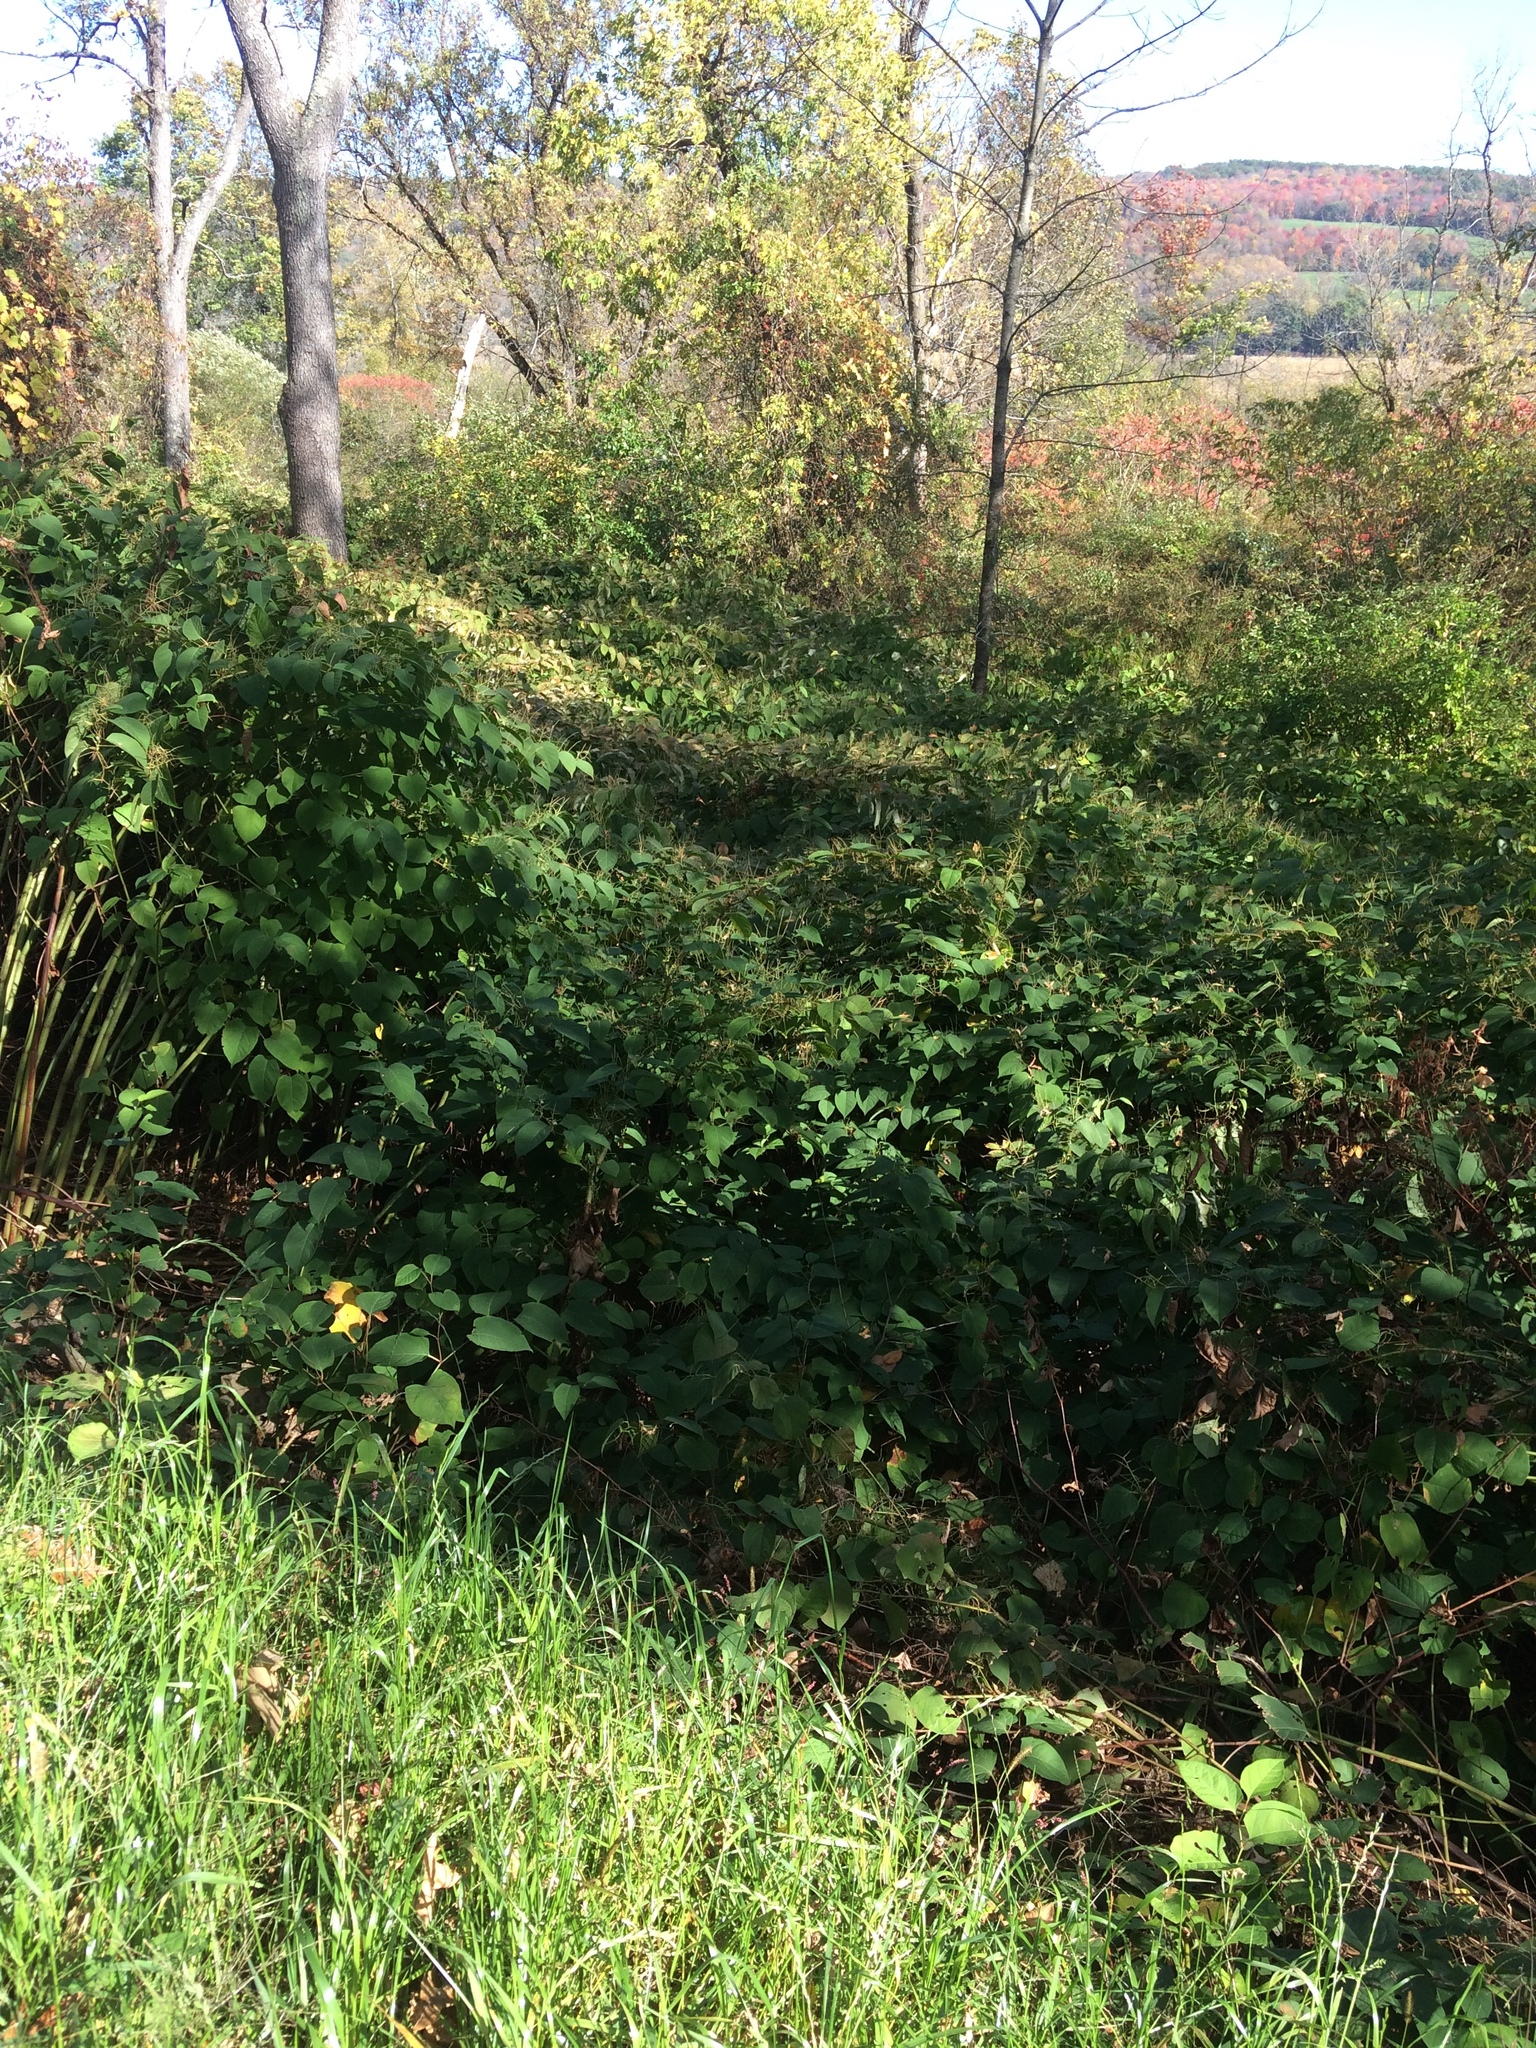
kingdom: Plantae
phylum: Tracheophyta
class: Magnoliopsida
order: Caryophyllales
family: Polygonaceae
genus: Reynoutria
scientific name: Reynoutria japonica
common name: Japanese knotweed
